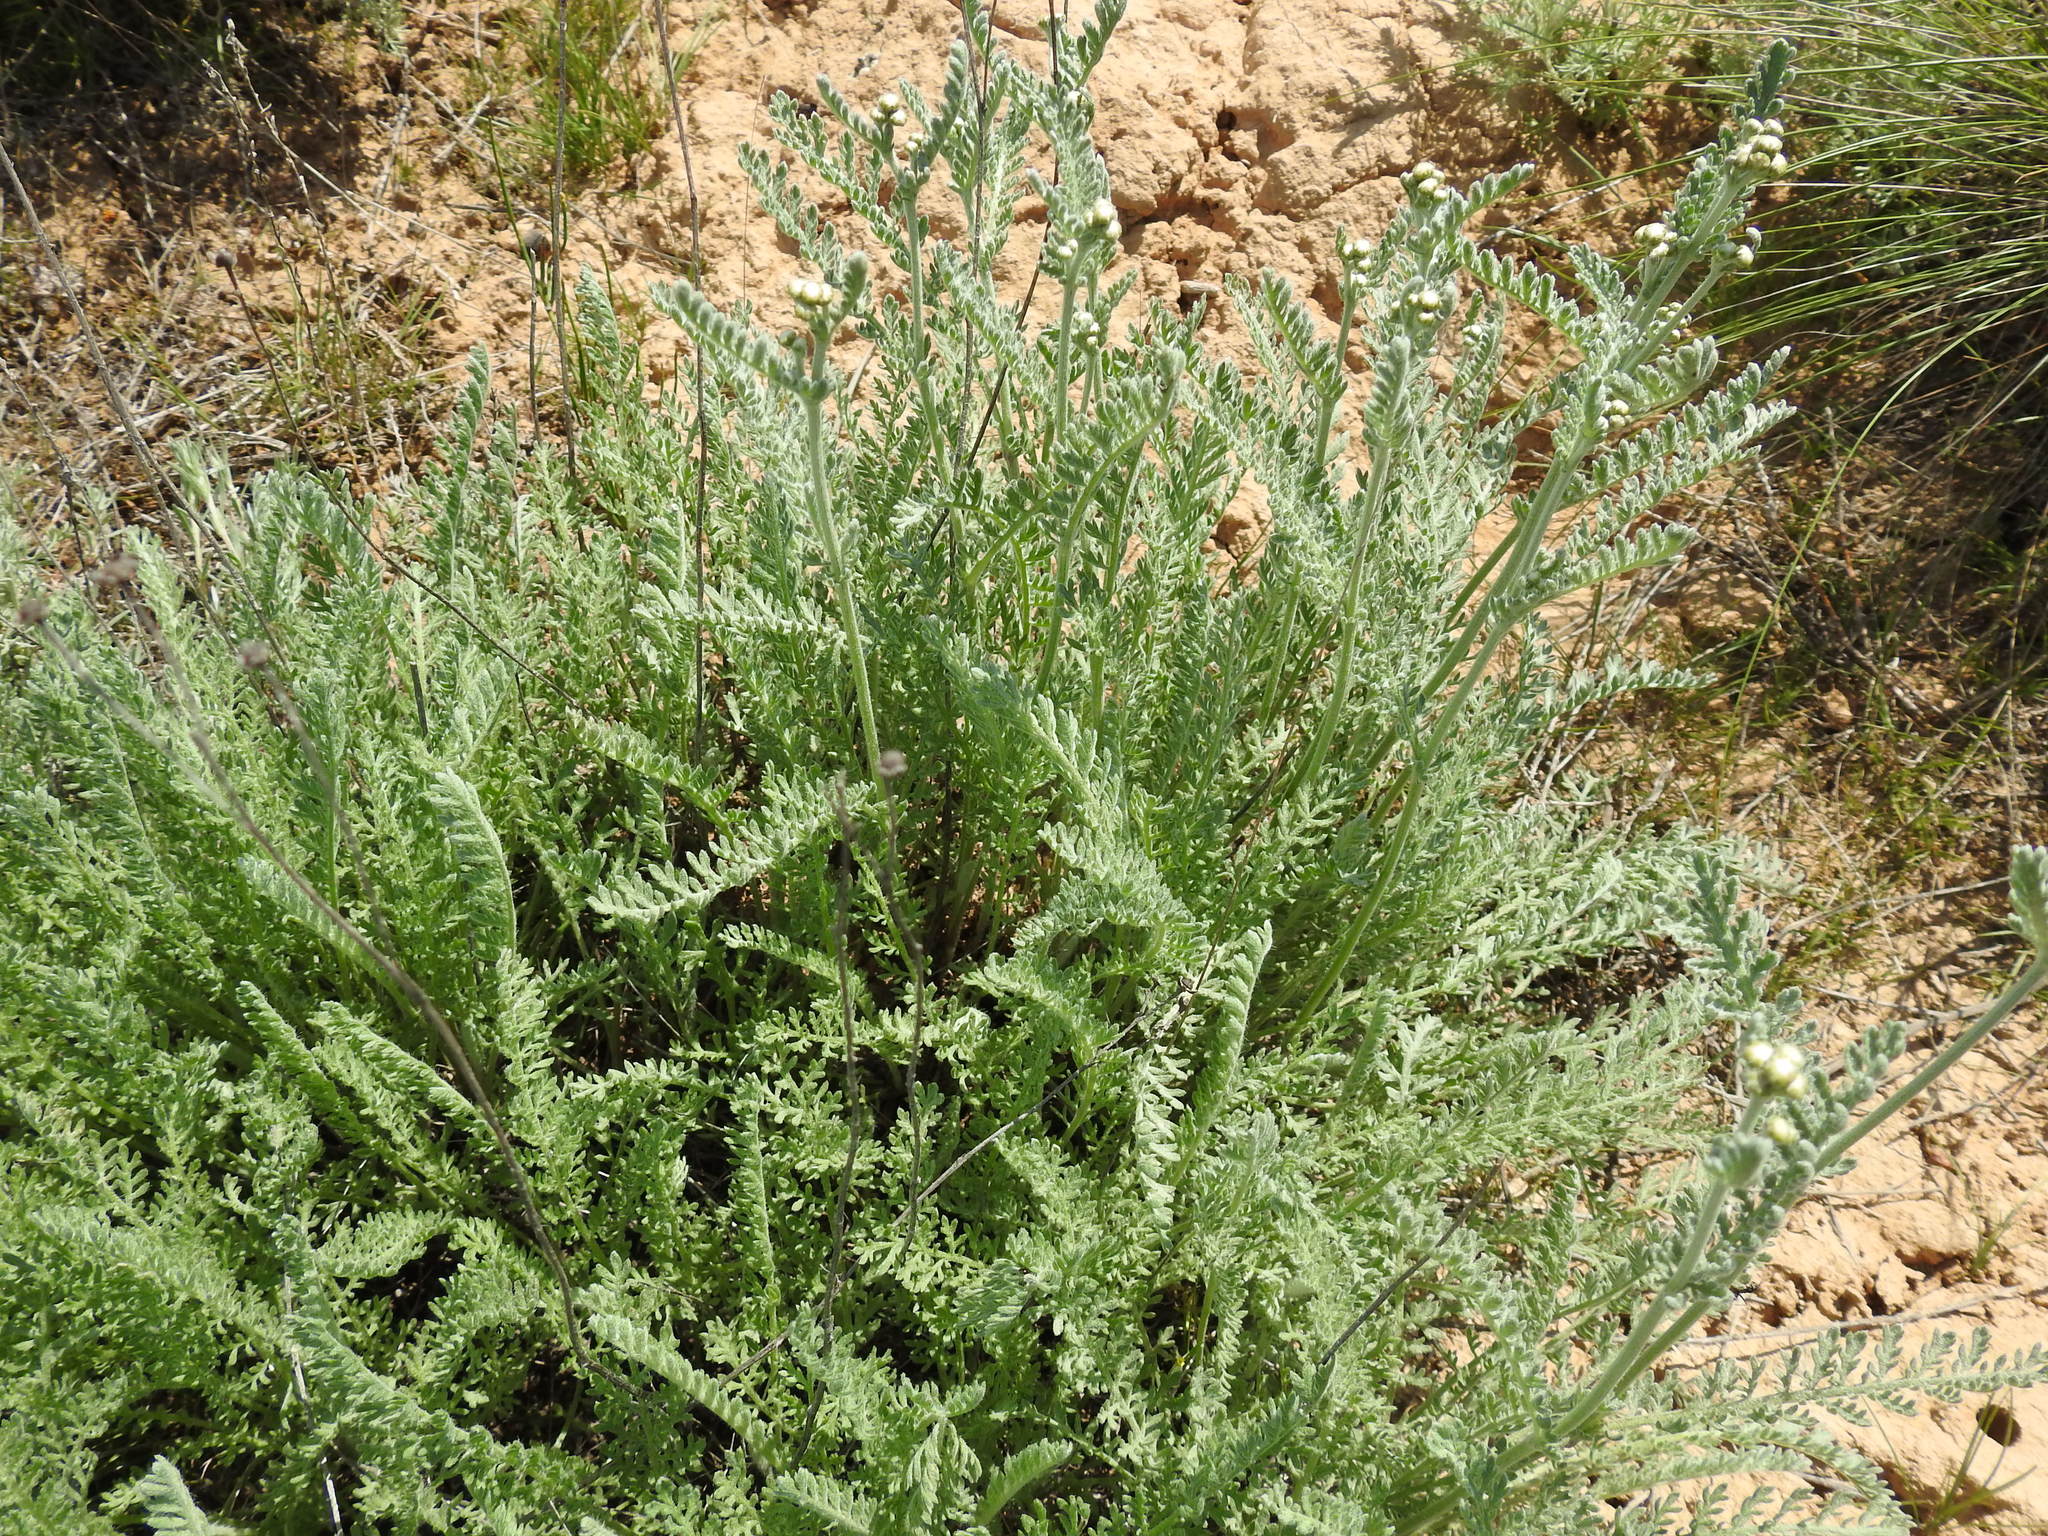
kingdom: Plantae
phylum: Tracheophyta
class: Magnoliopsida
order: Asterales
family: Asteraceae
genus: Tanacetum
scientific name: Tanacetum achilleifolium
